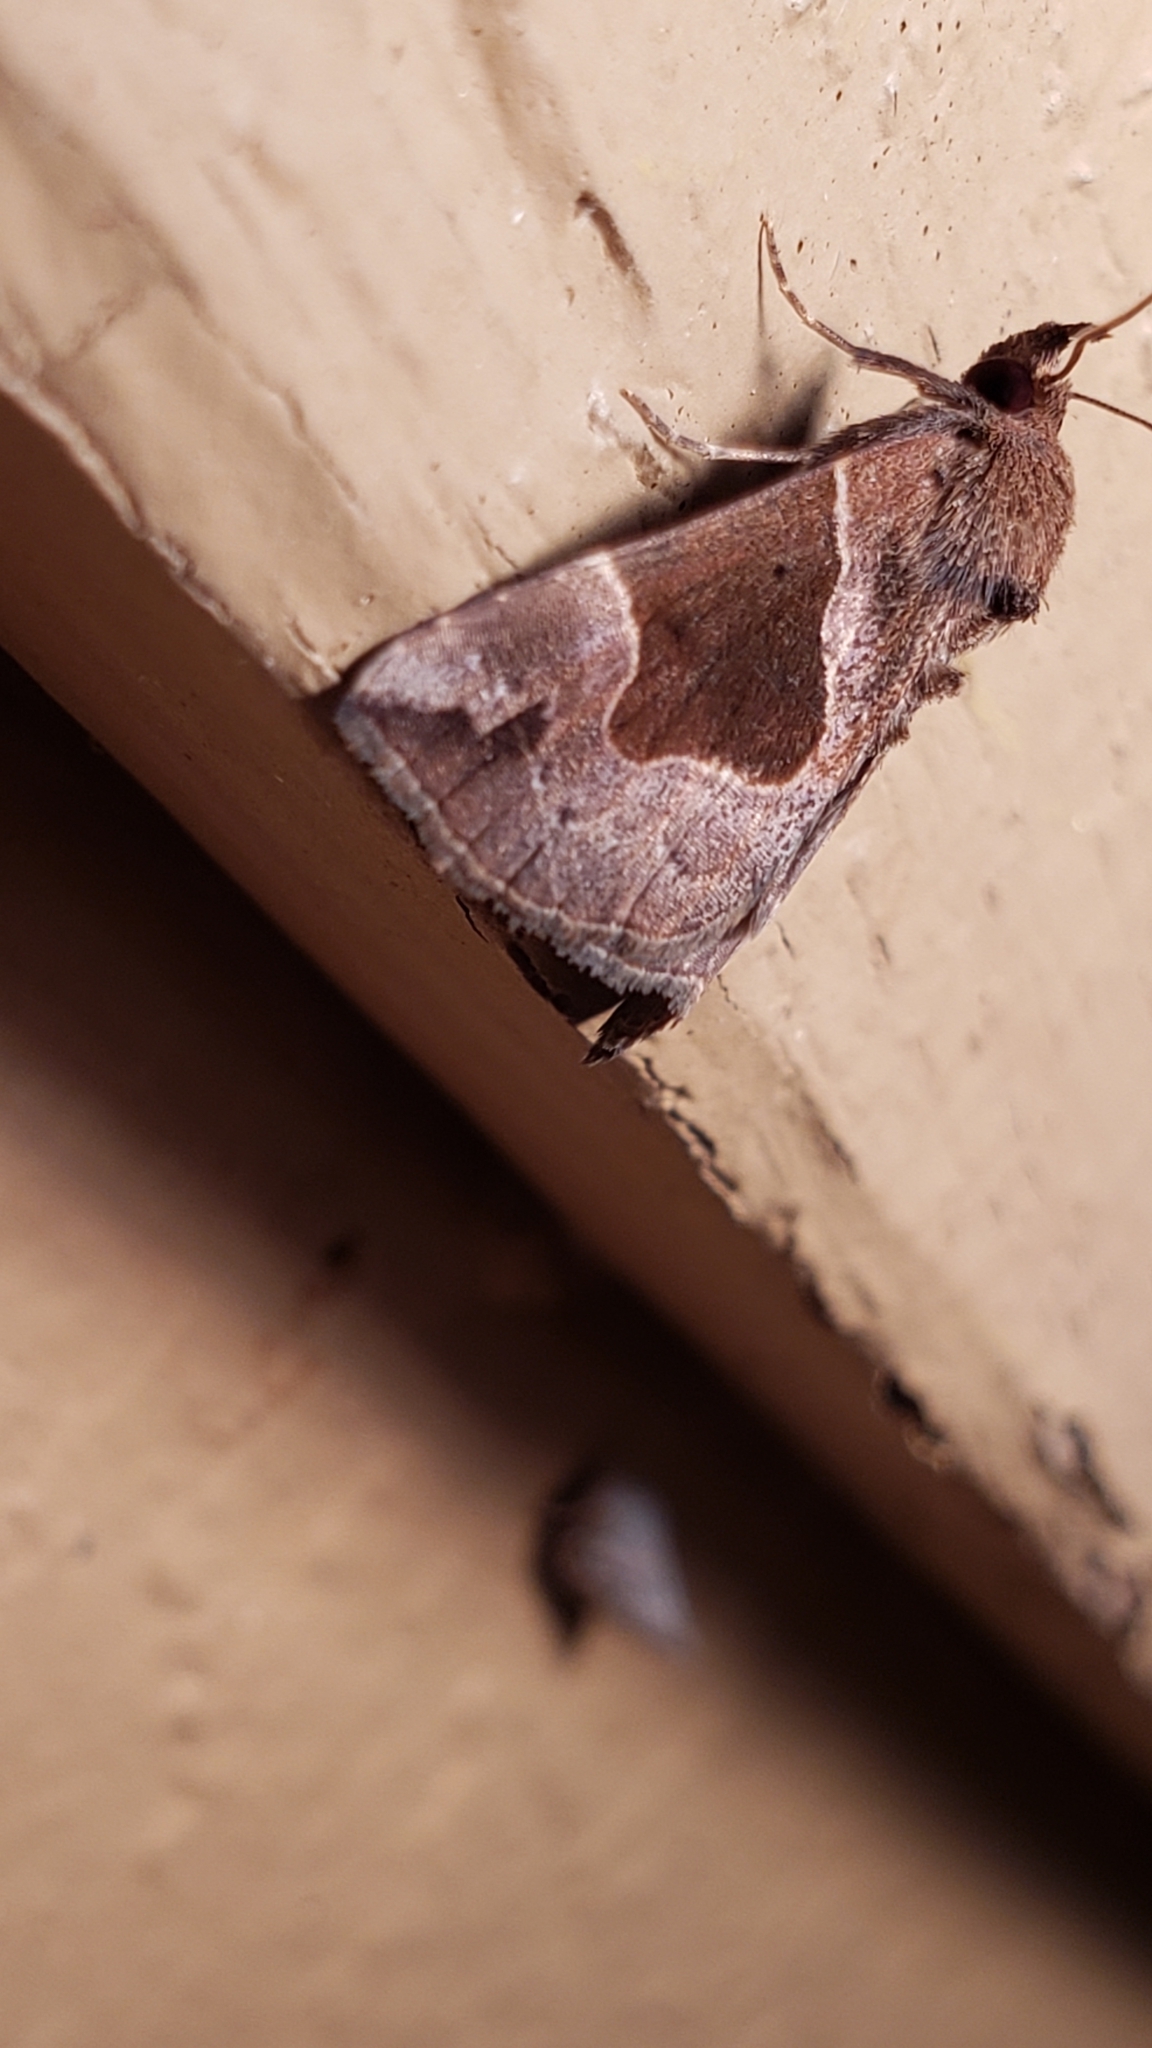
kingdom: Animalia
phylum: Arthropoda
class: Insecta
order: Lepidoptera
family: Erebidae
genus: Hypena
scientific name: Hypena manalis
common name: Flowing-line bomolocha moth
